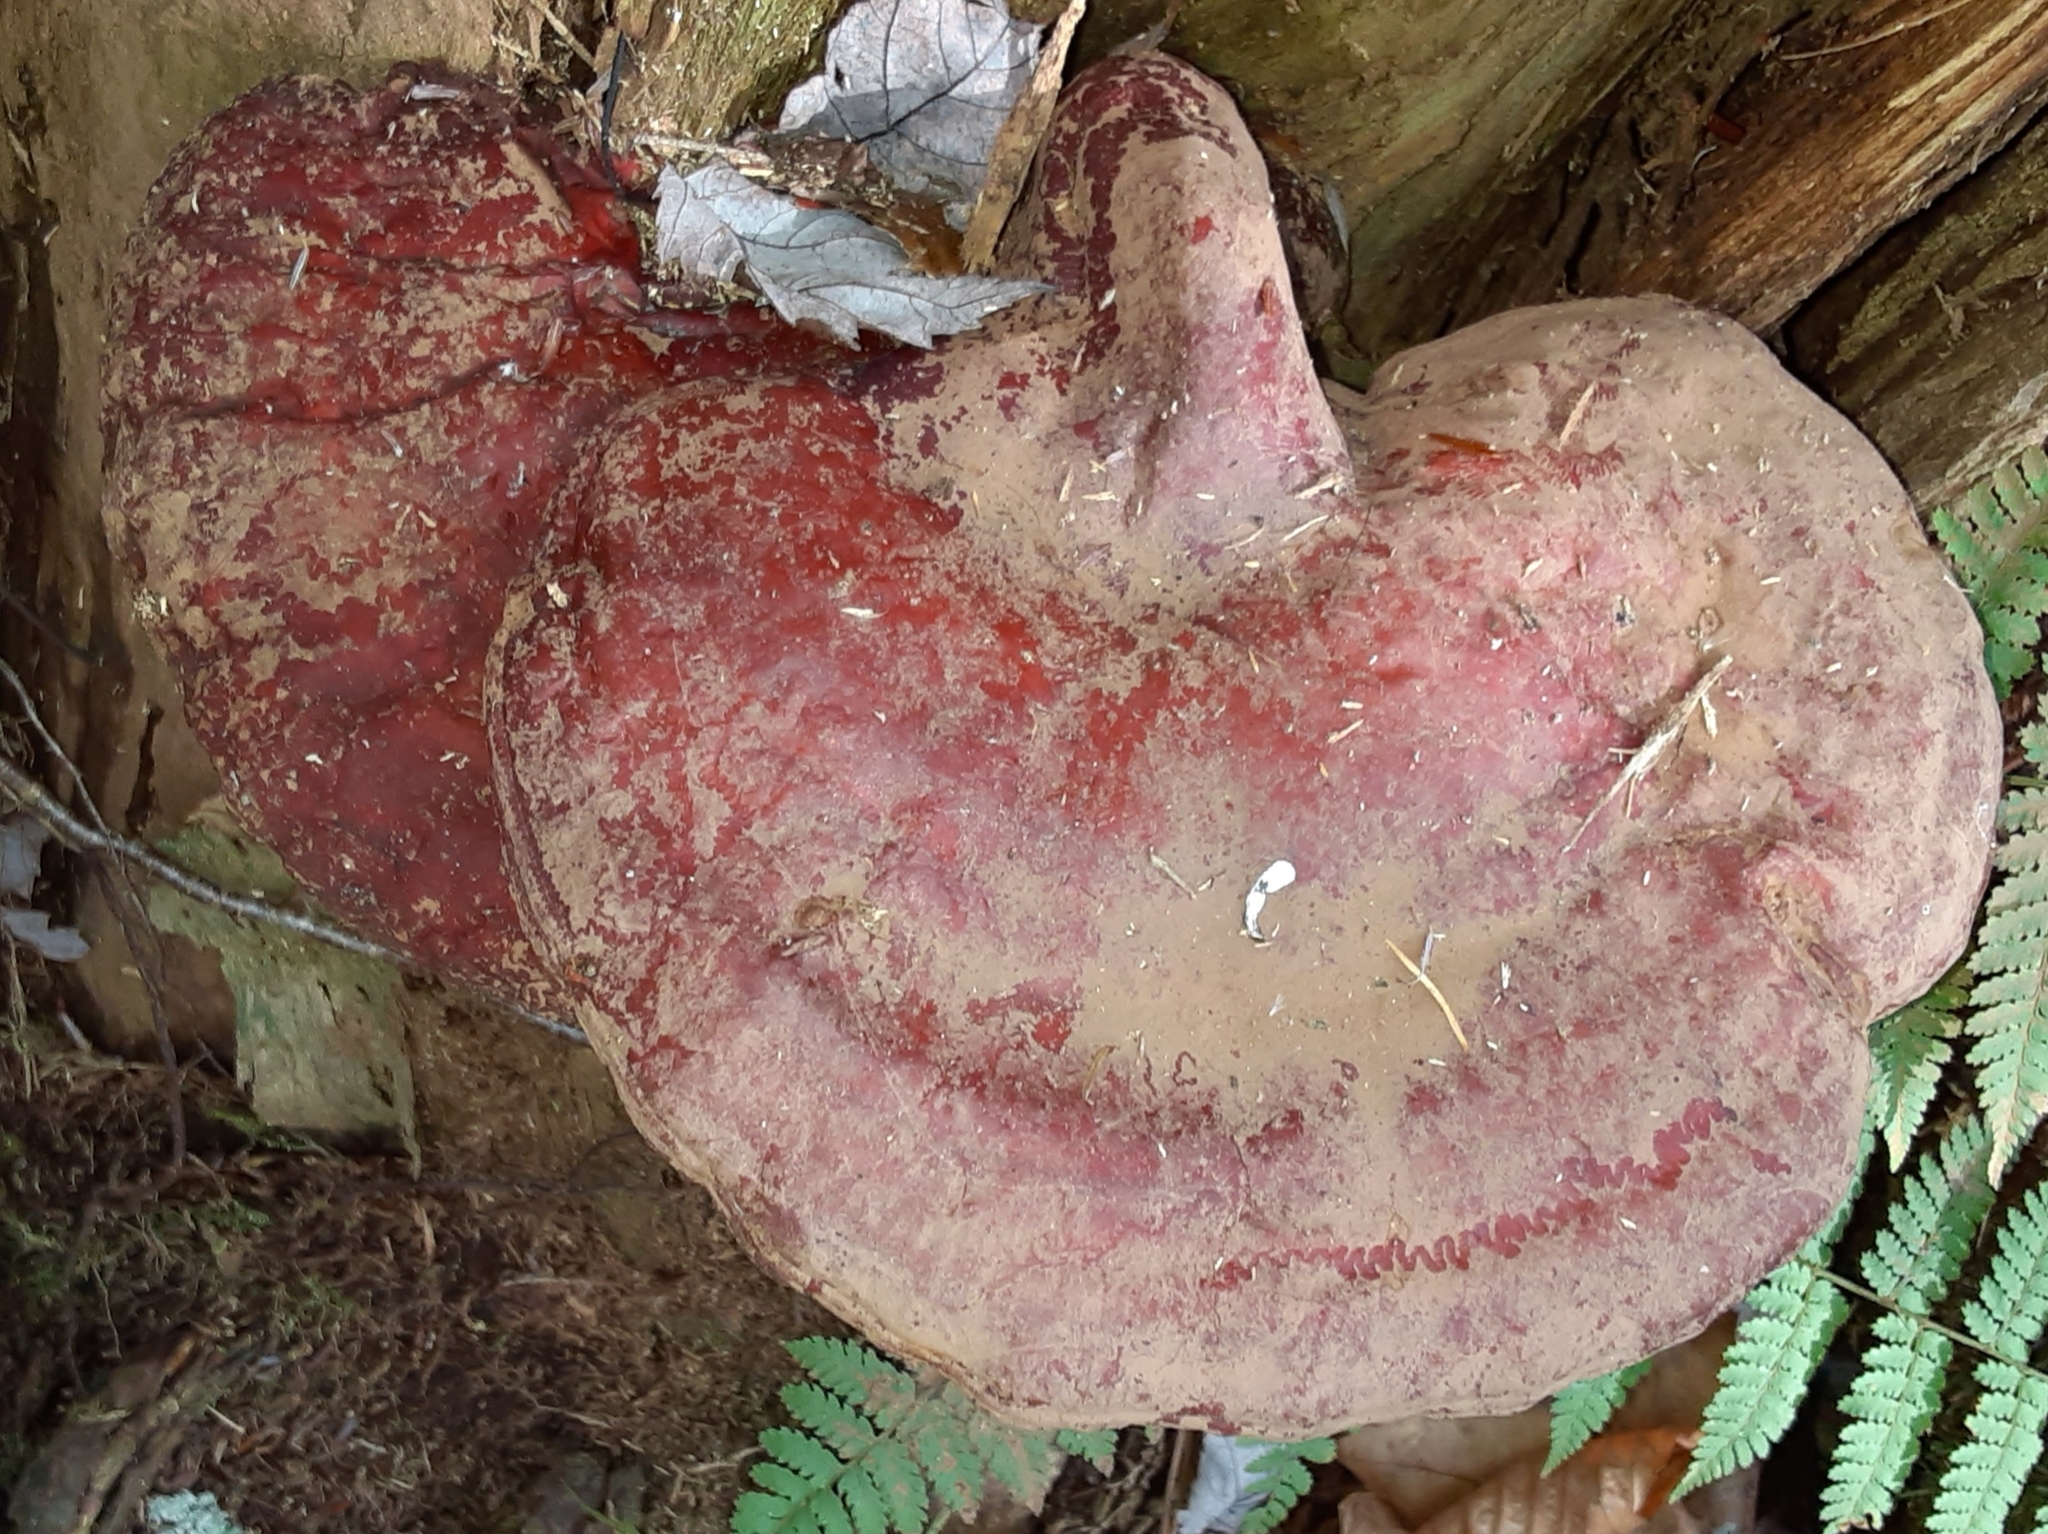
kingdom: Fungi
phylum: Basidiomycota
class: Agaricomycetes
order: Polyporales
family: Polyporaceae
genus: Ganoderma
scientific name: Ganoderma tsugae
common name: Hemlock varnish shelf
